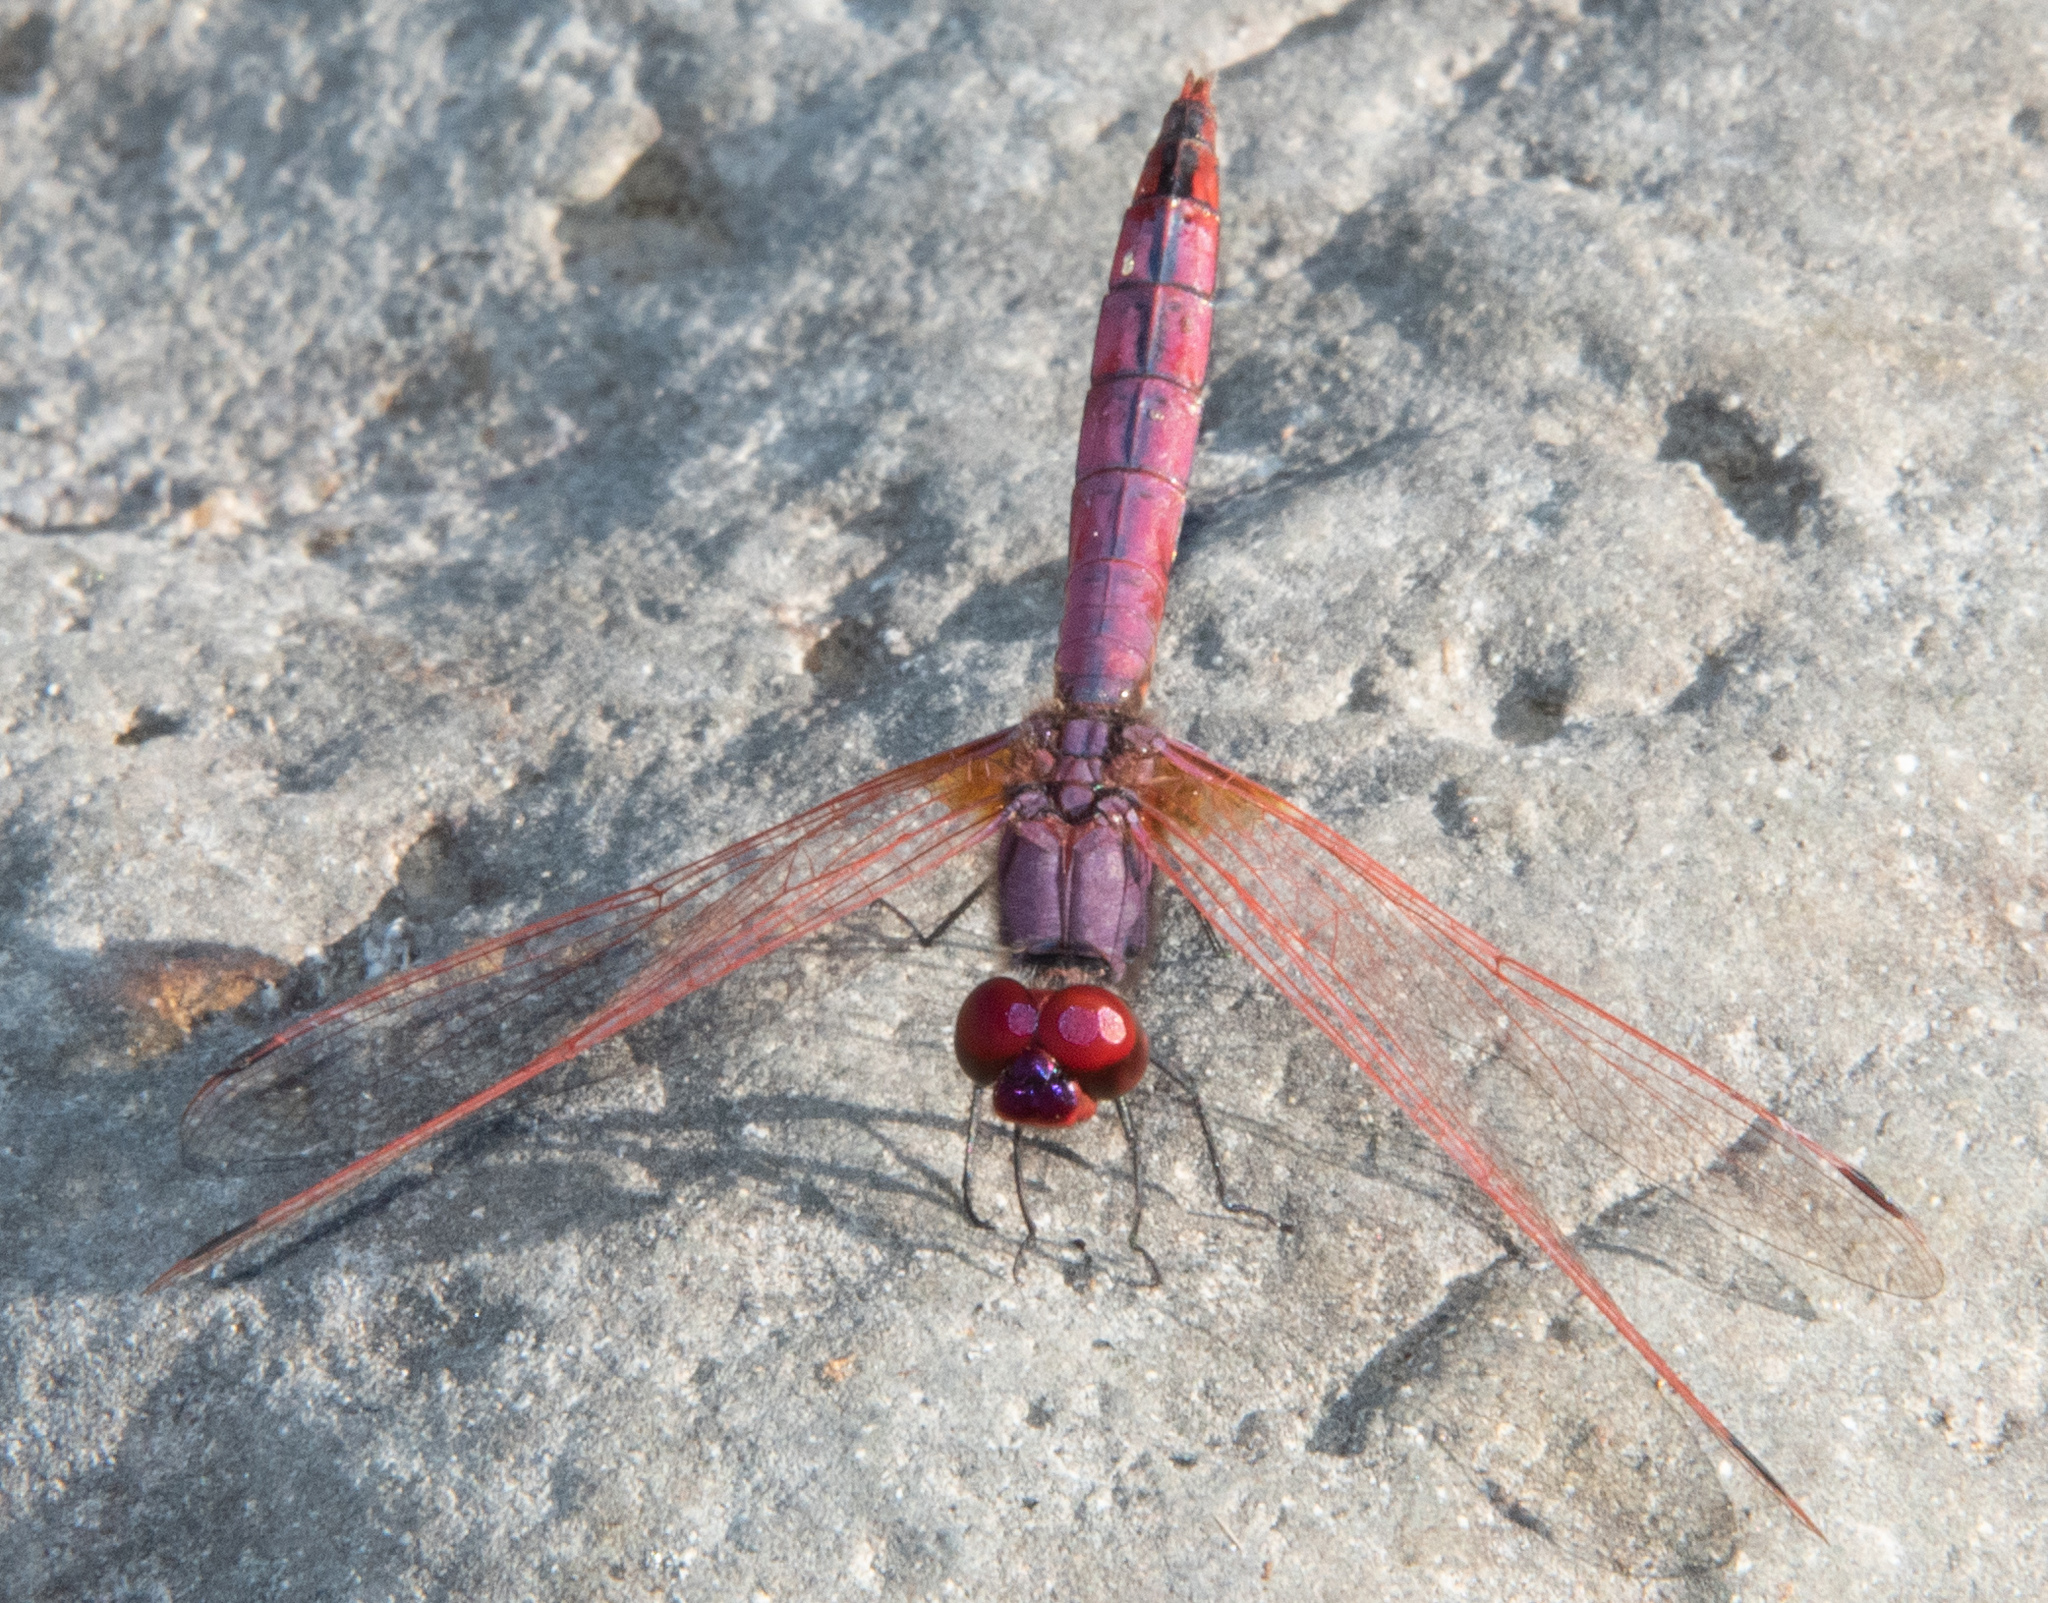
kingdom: Animalia
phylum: Arthropoda
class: Insecta
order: Odonata
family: Libellulidae
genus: Trithemis
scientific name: Trithemis annulata
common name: Violet dropwing
